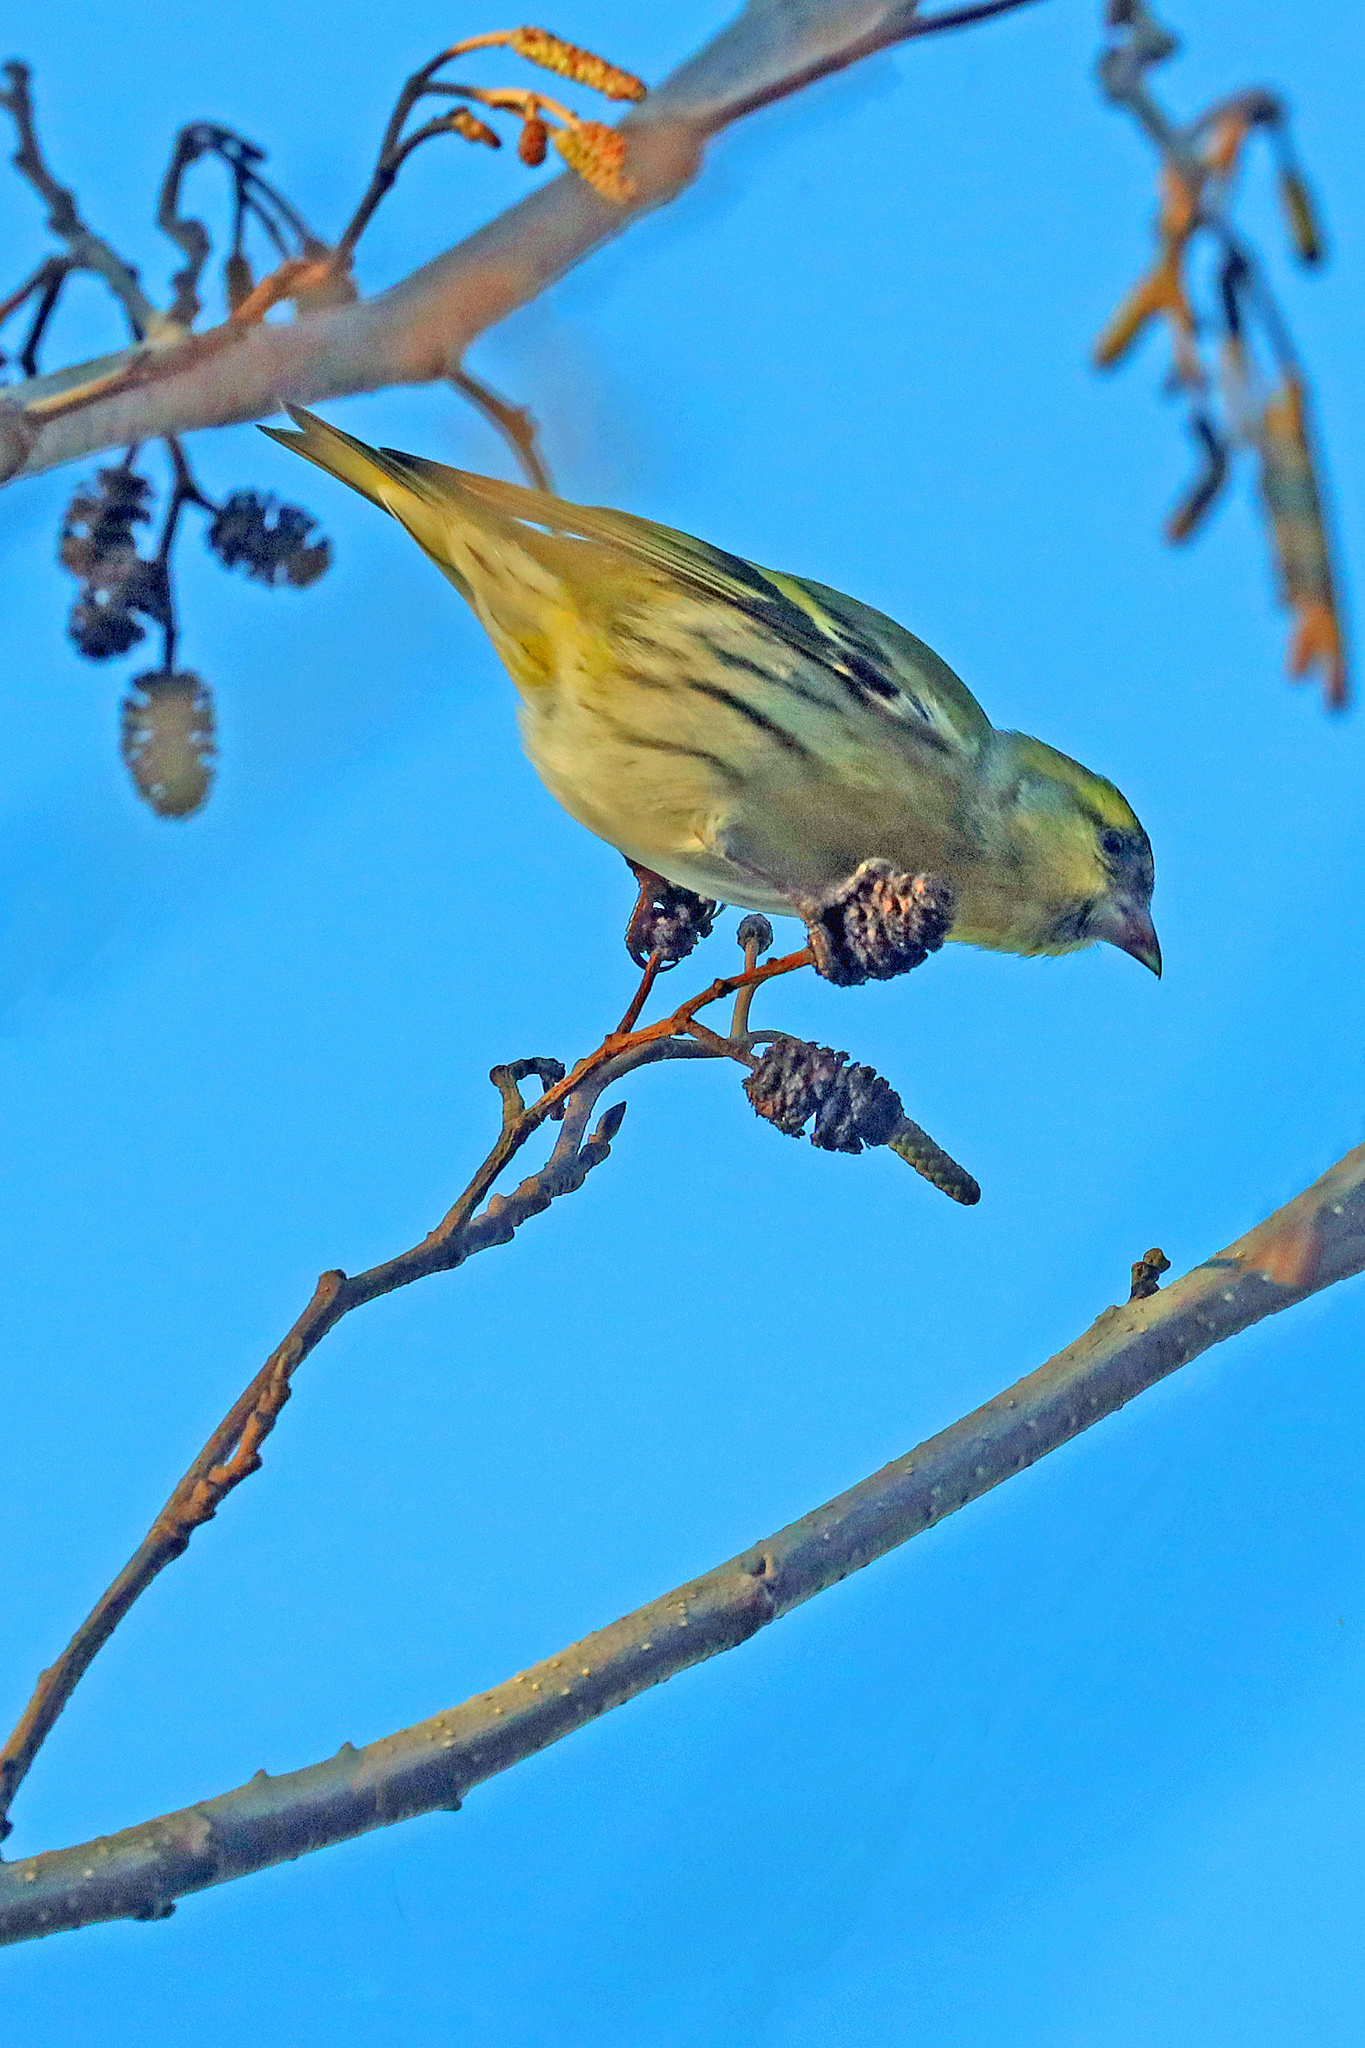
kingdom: Animalia
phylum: Chordata
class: Aves
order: Passeriformes
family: Fringillidae
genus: Spinus
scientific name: Spinus spinus
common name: Eurasian siskin
